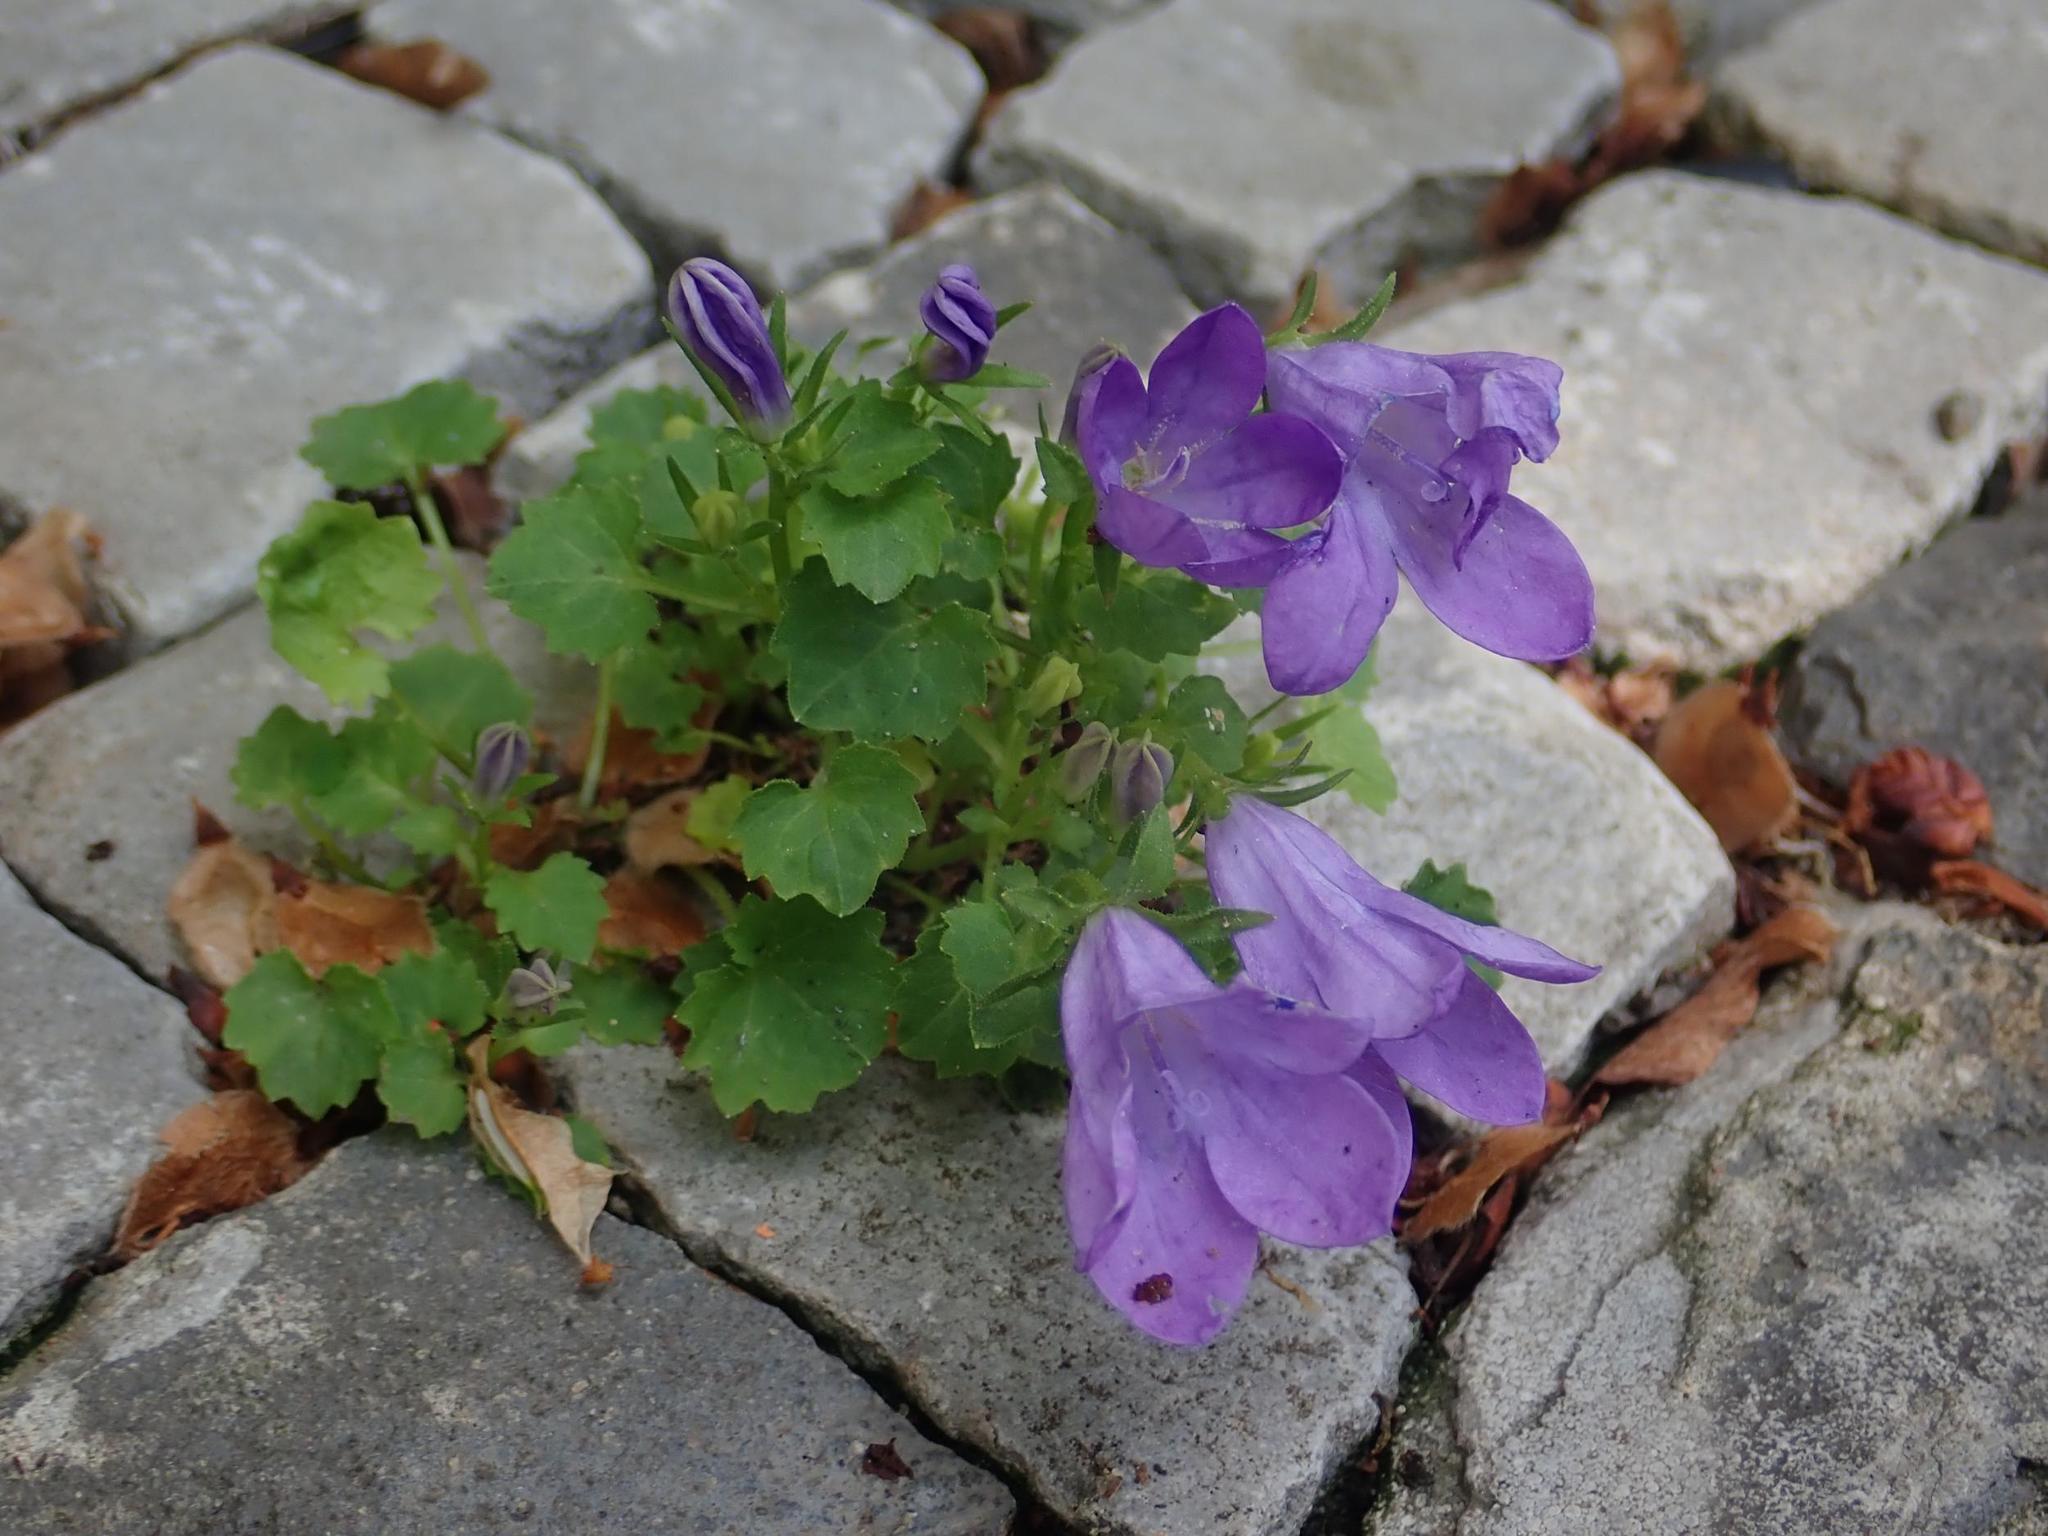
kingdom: Plantae
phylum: Tracheophyta
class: Magnoliopsida
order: Asterales
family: Campanulaceae
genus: Campanula
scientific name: Campanula poscharskyana
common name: Trailing bellflower
